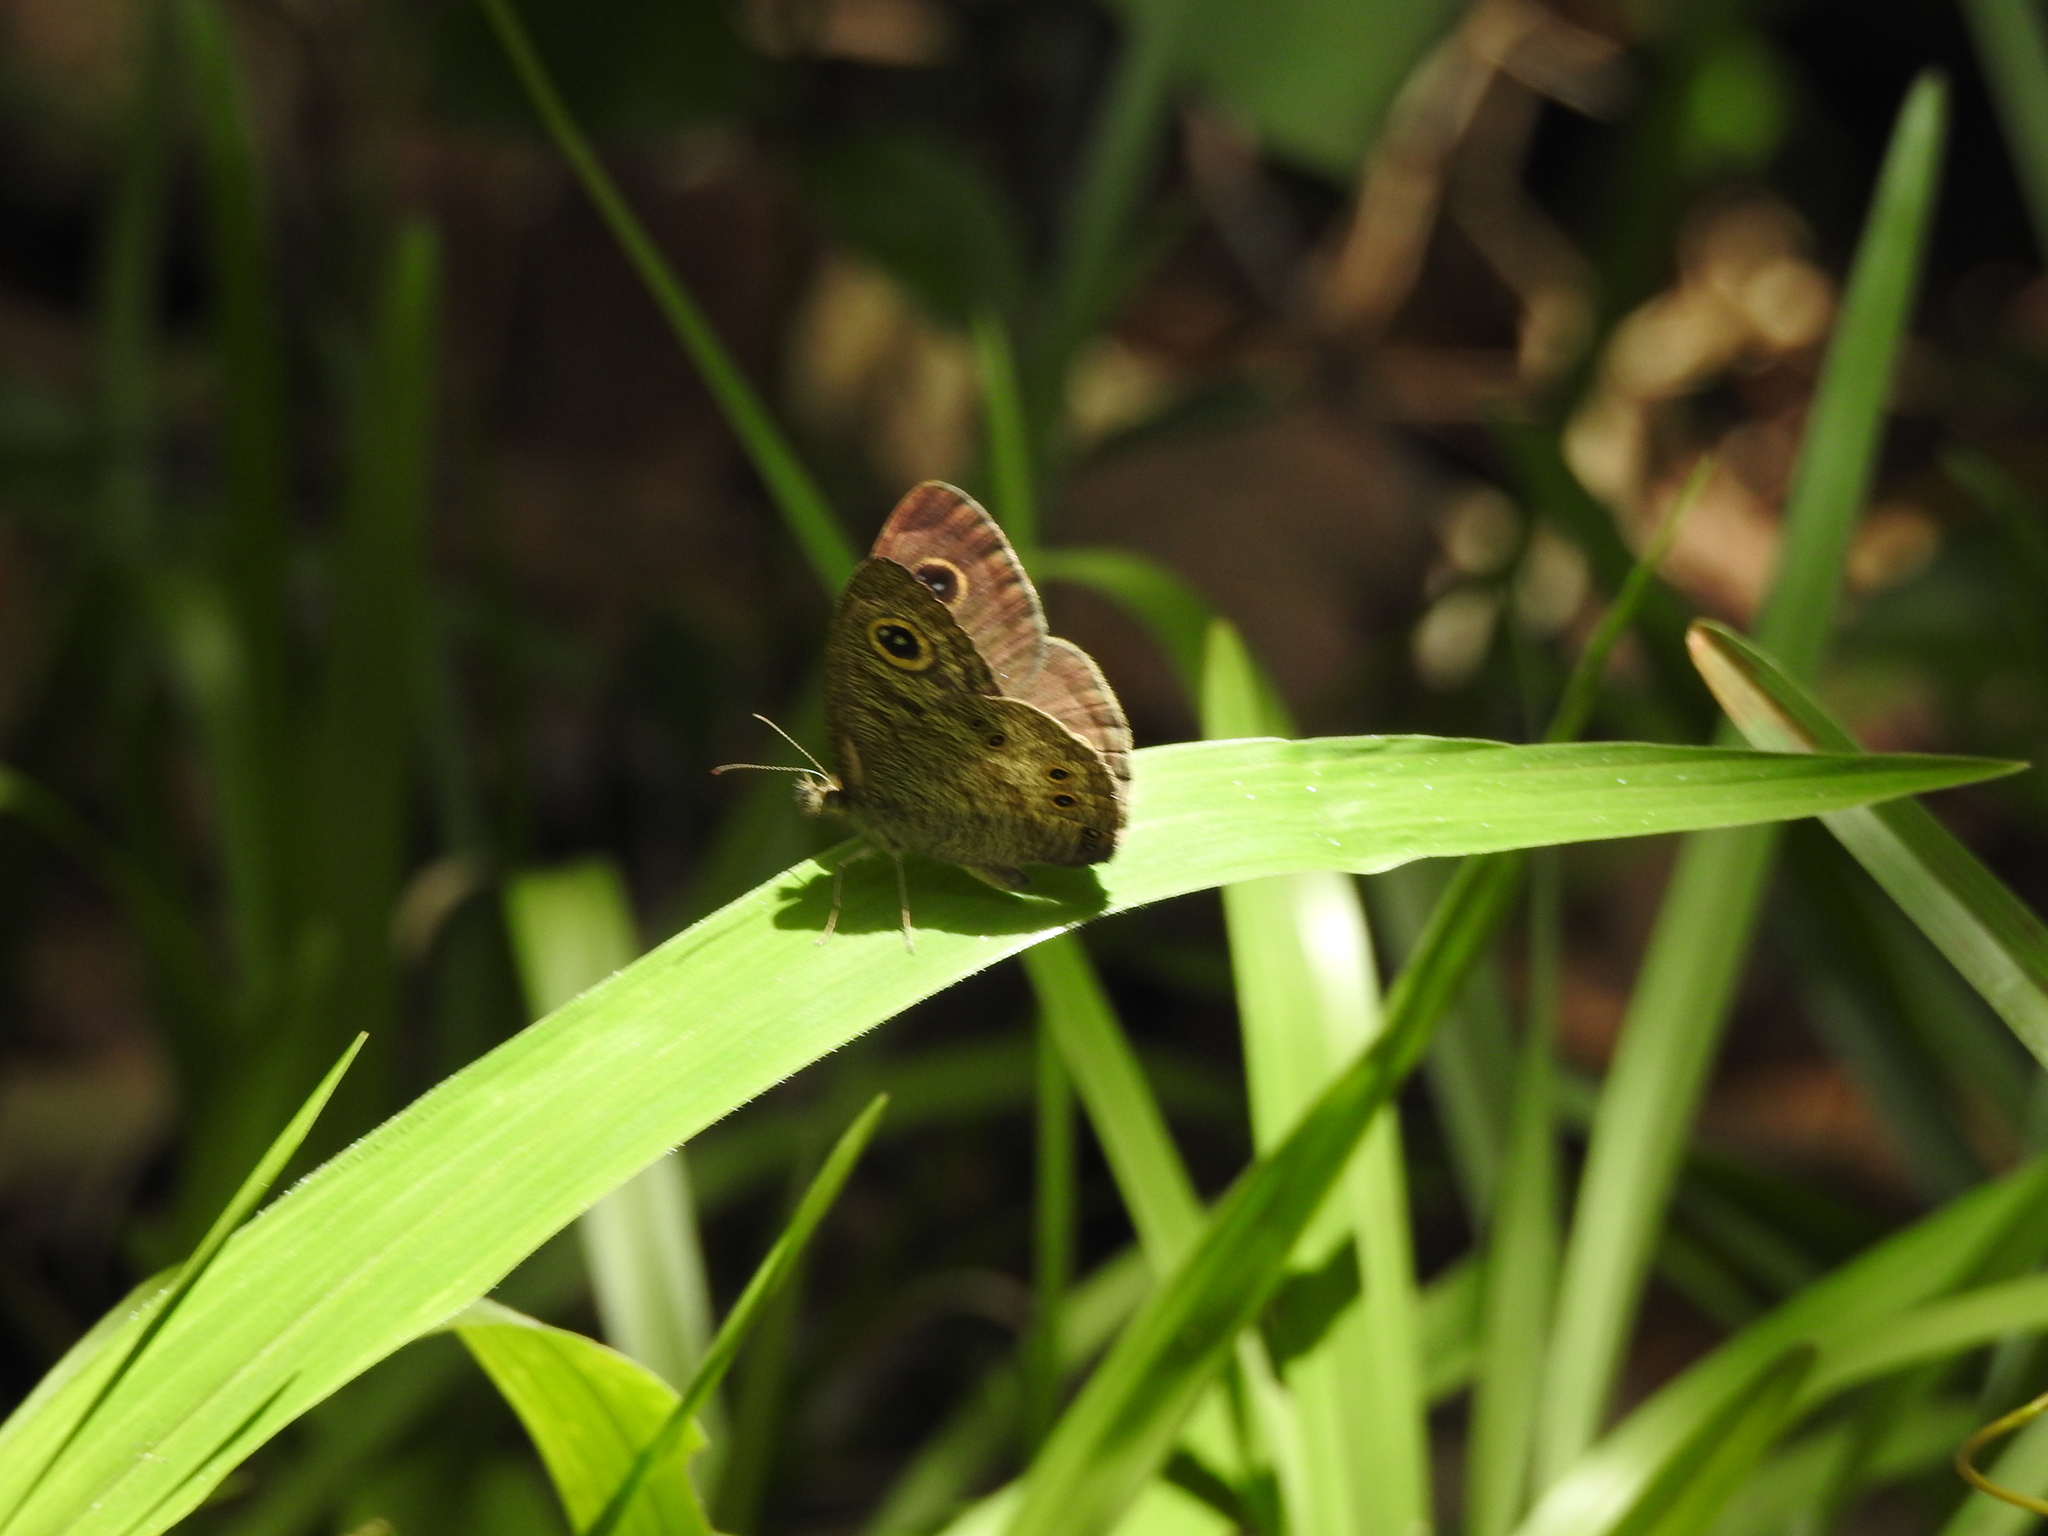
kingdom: Animalia
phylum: Arthropoda
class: Insecta
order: Lepidoptera
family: Nymphalidae
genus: Ypthima
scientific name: Ypthima baldus
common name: Common five-ring
